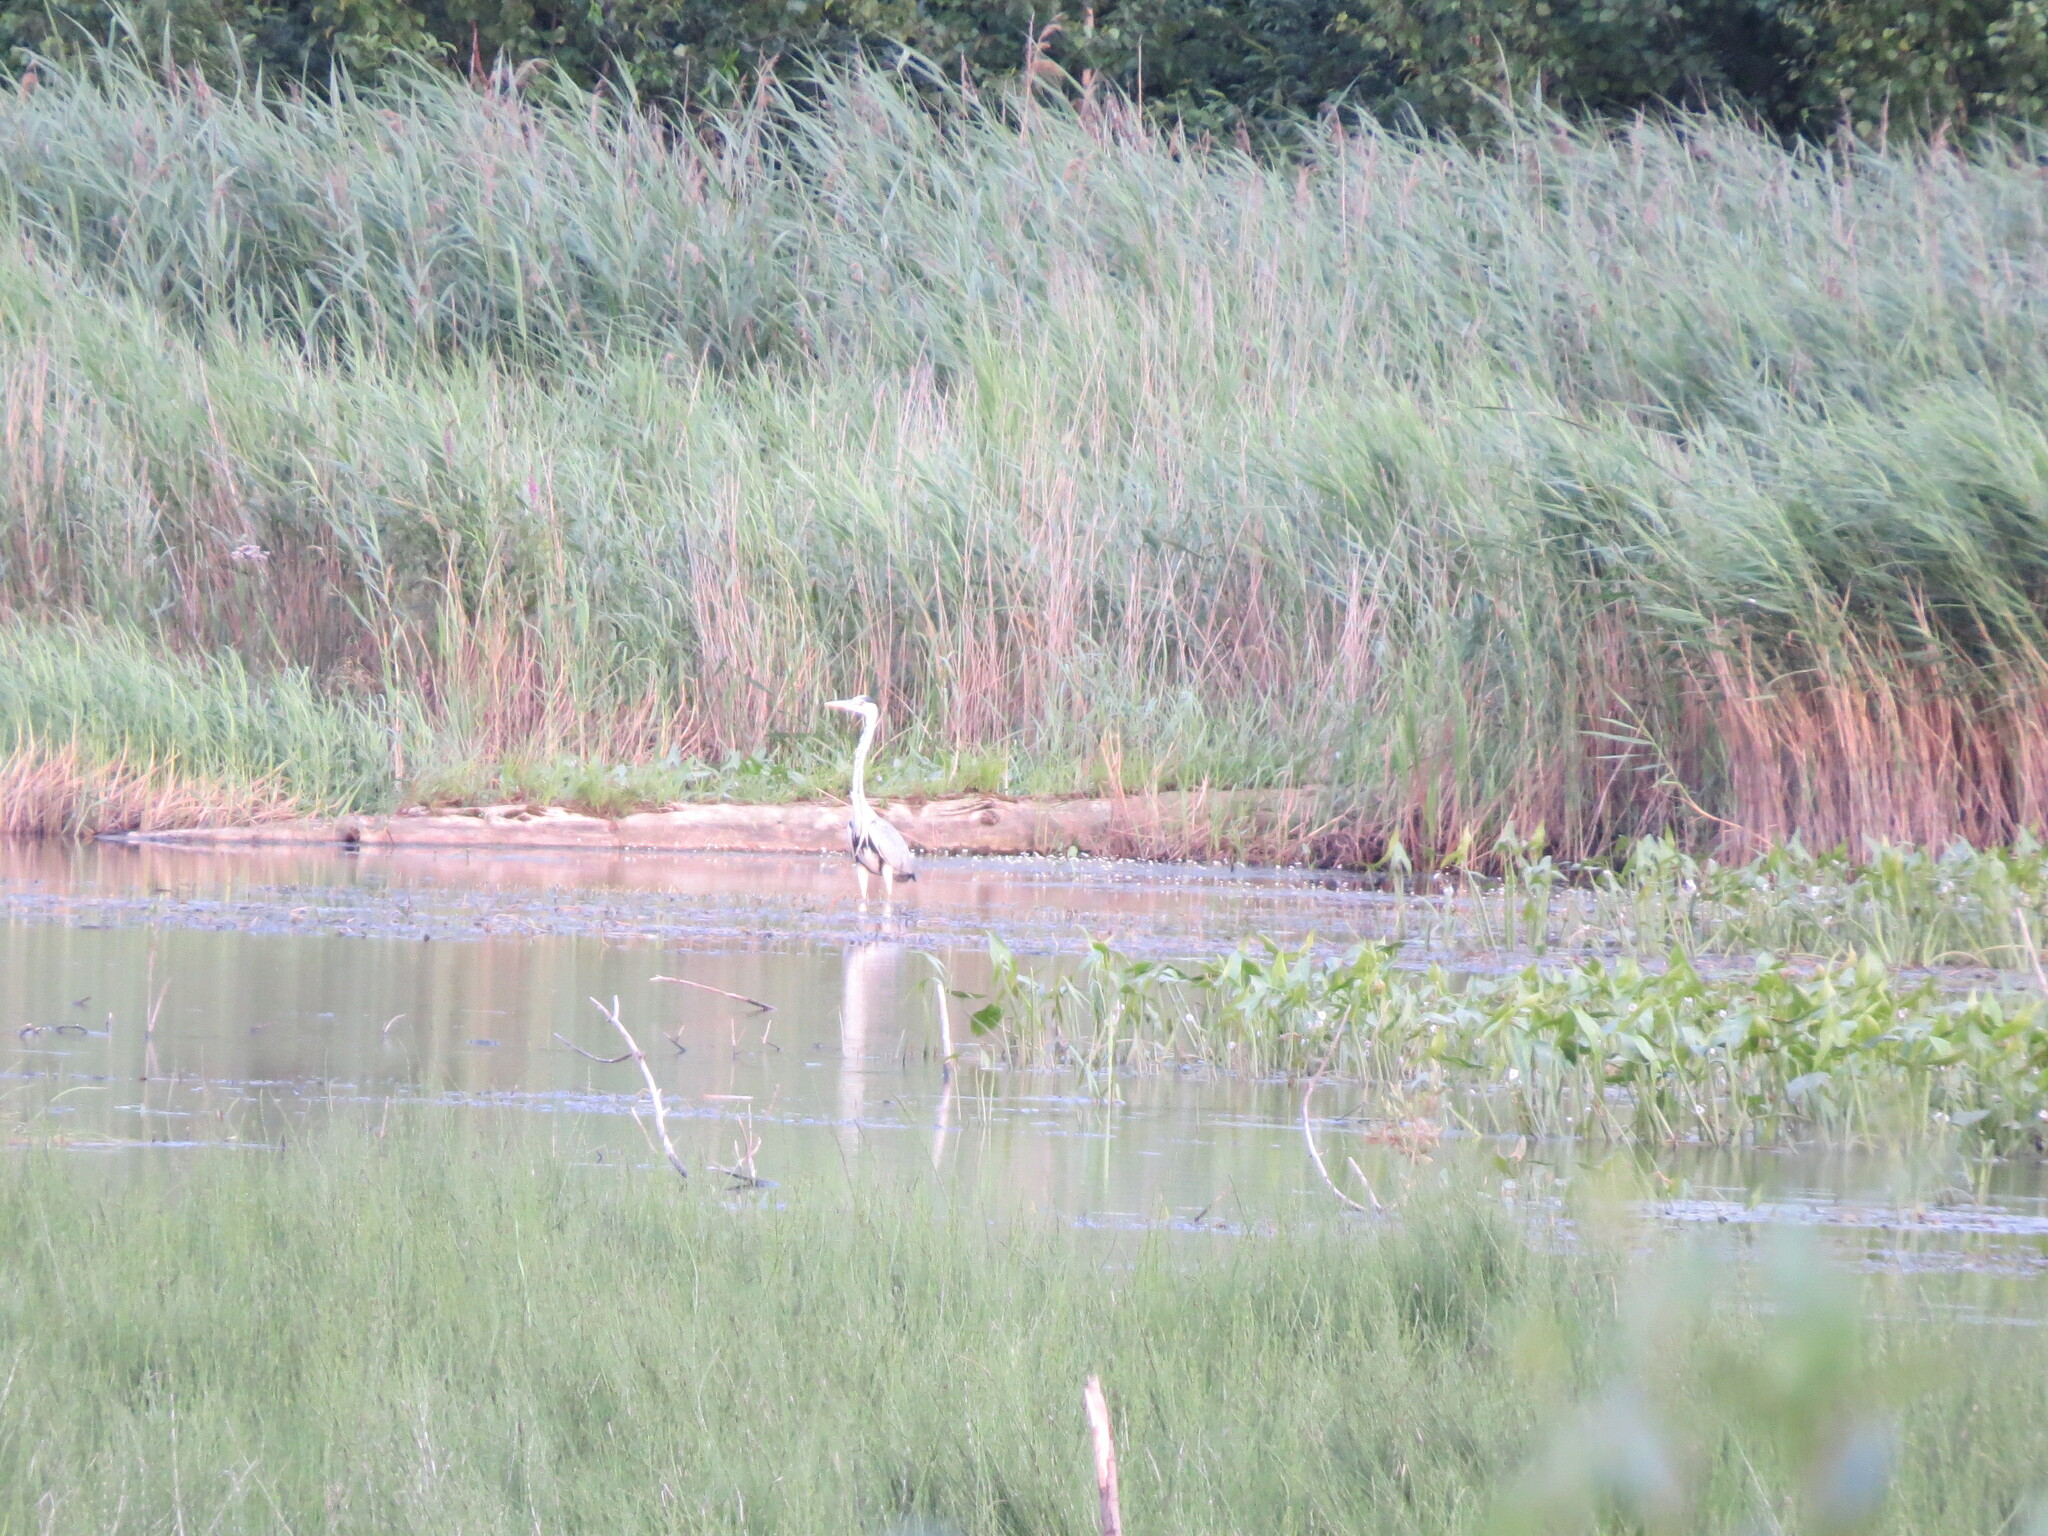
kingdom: Animalia
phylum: Chordata
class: Aves
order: Pelecaniformes
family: Ardeidae
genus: Ardea
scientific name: Ardea cinerea
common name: Grey heron
